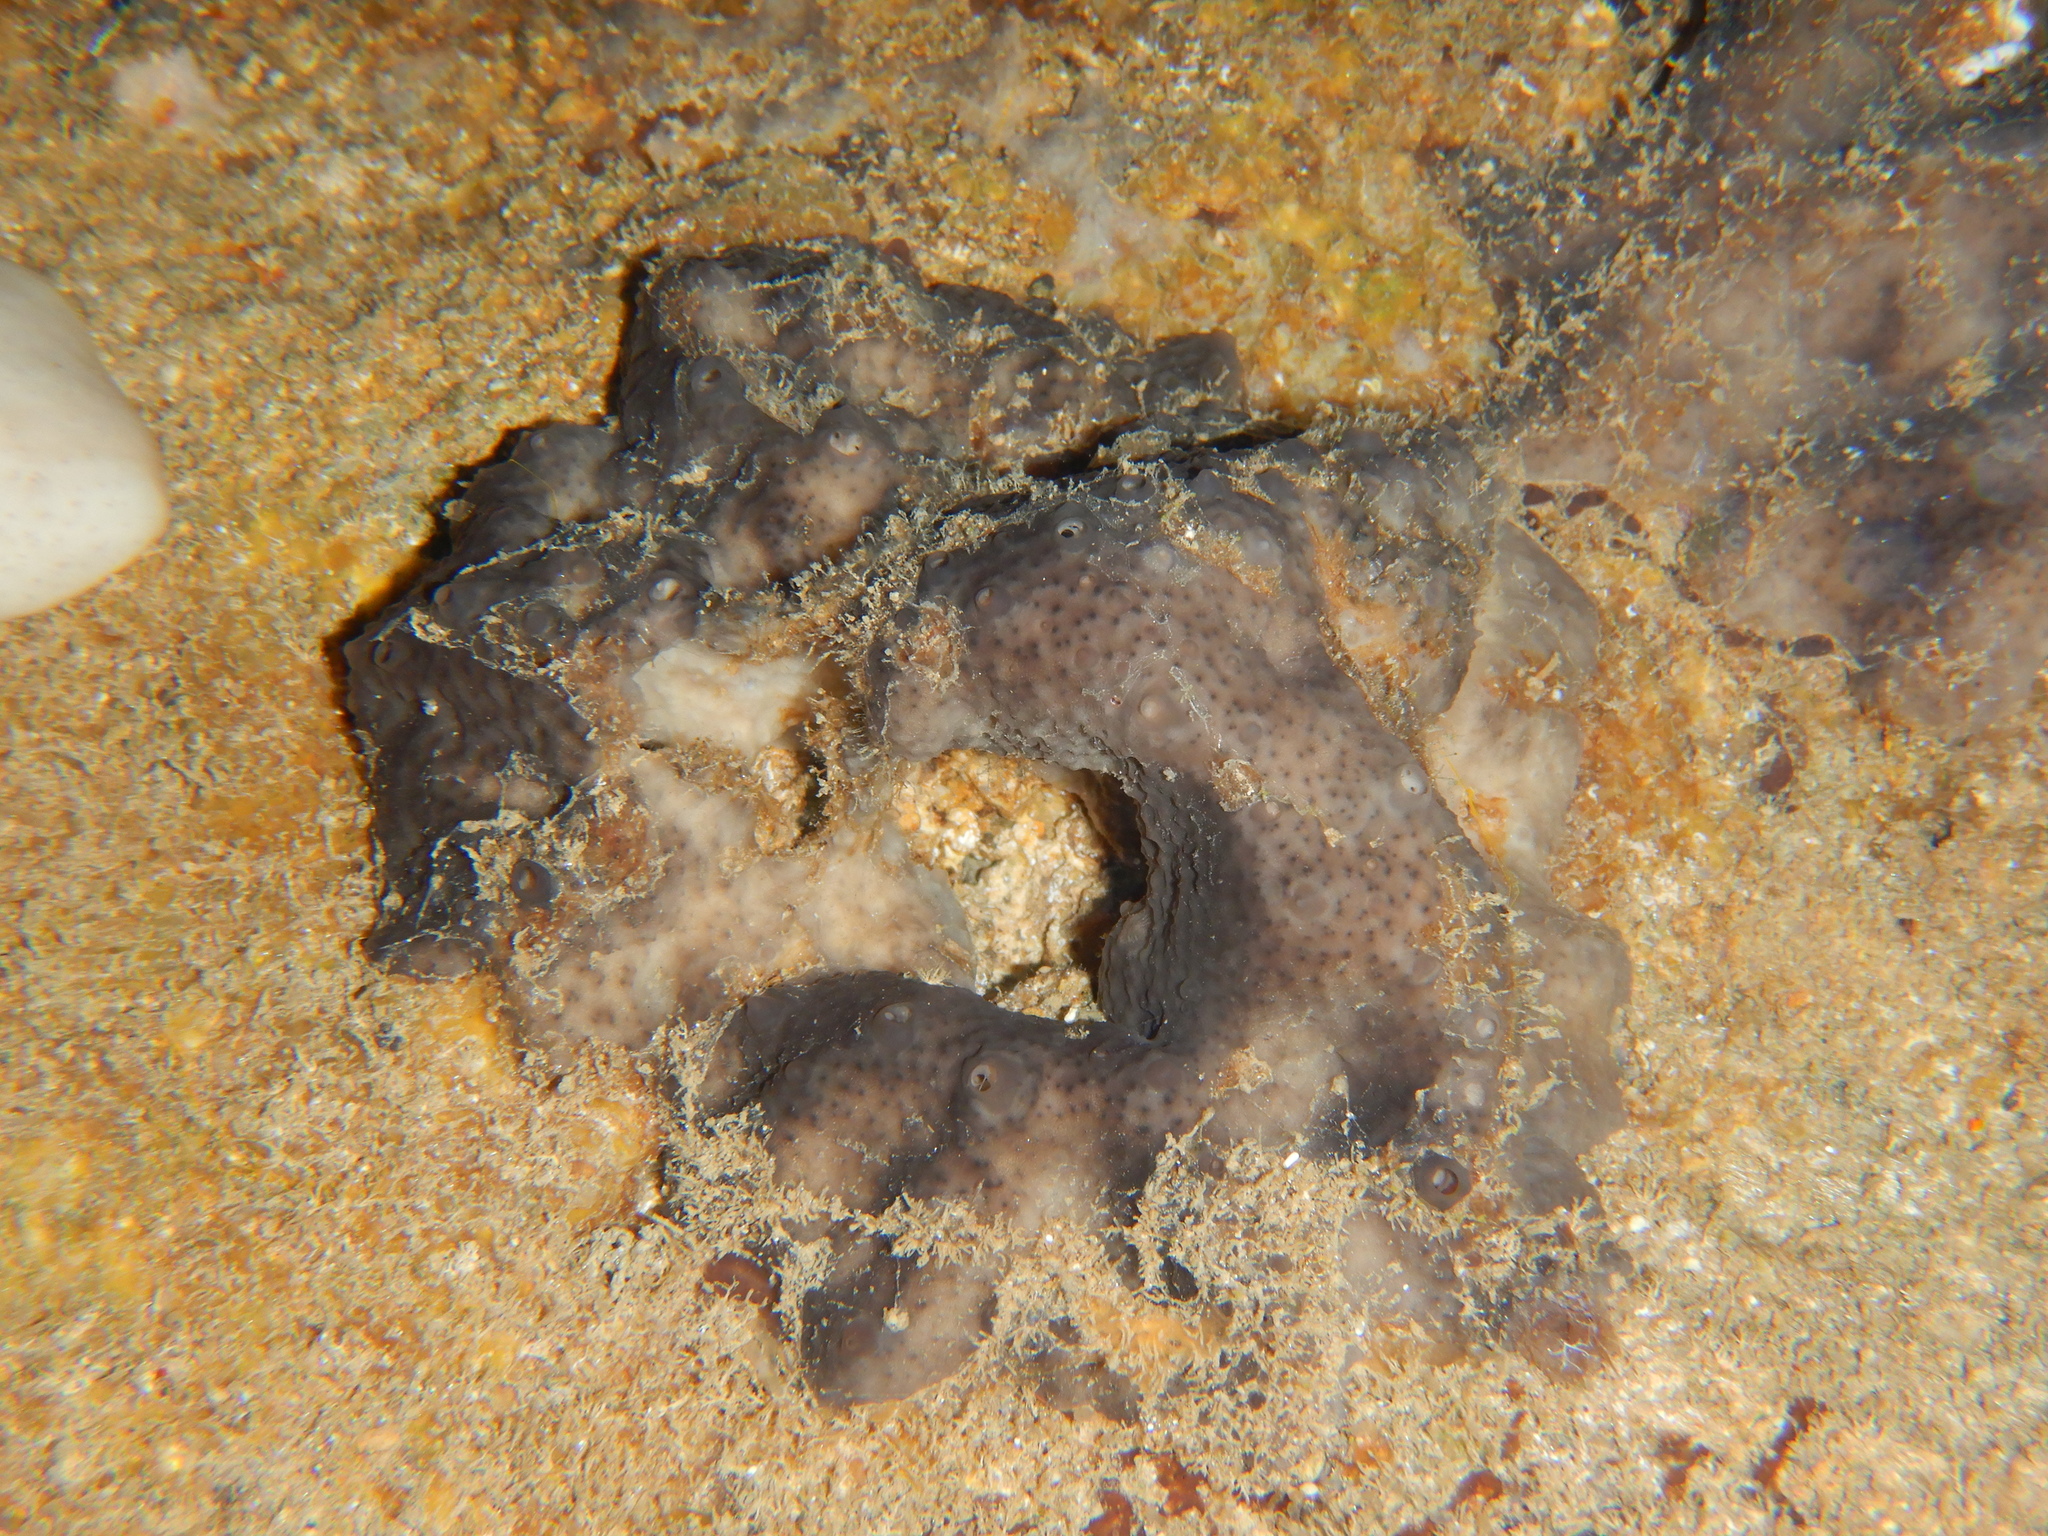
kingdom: Animalia
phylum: Porifera
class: Demospongiae
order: Dictyoceratida
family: Thorectidae
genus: Cacospongia
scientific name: Cacospongia mollior
